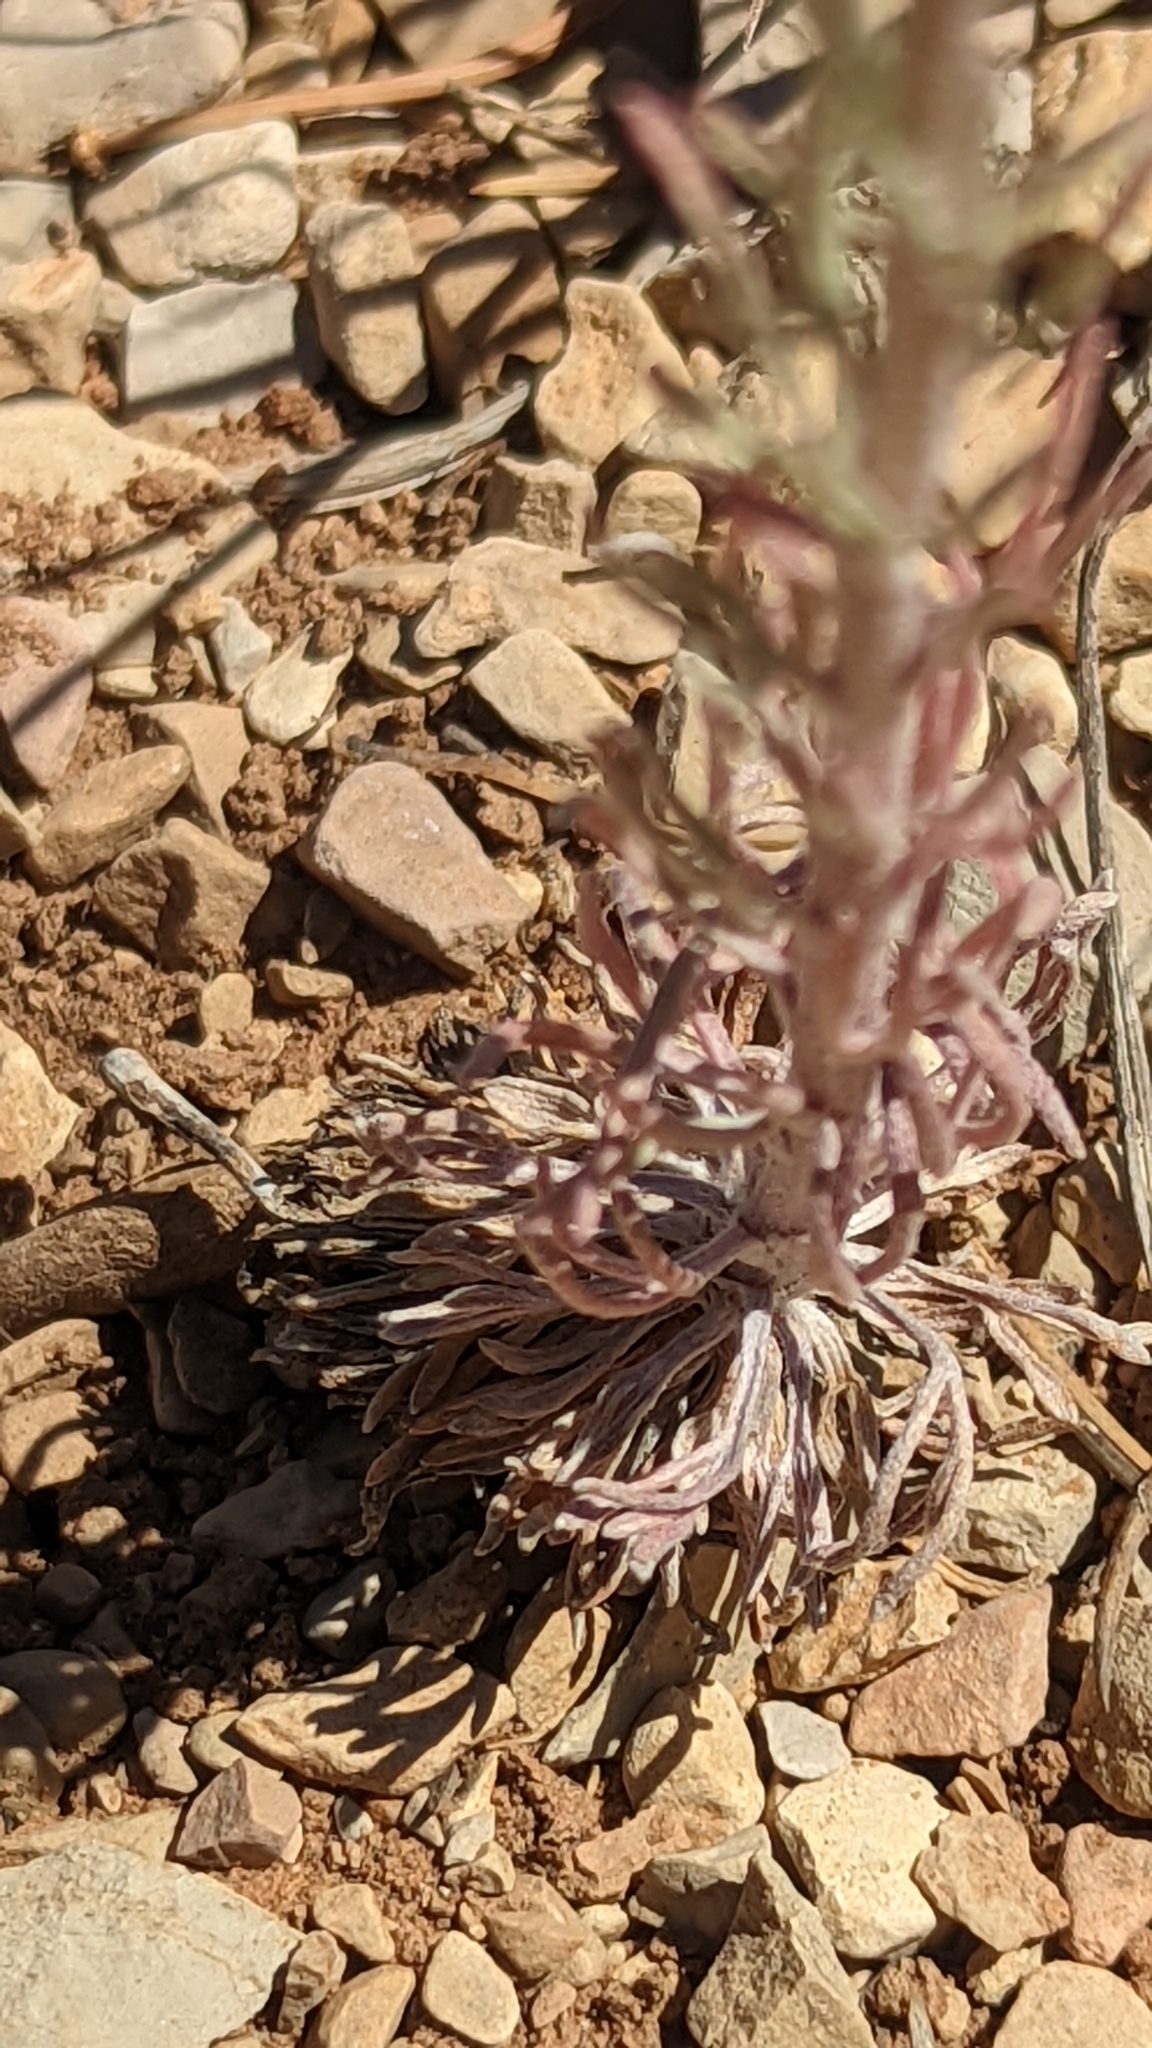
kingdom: Plantae
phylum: Tracheophyta
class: Magnoliopsida
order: Asterales
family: Asteraceae
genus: Hymenoxys
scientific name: Hymenoxys cooperi
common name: Cooper's bitterweed
